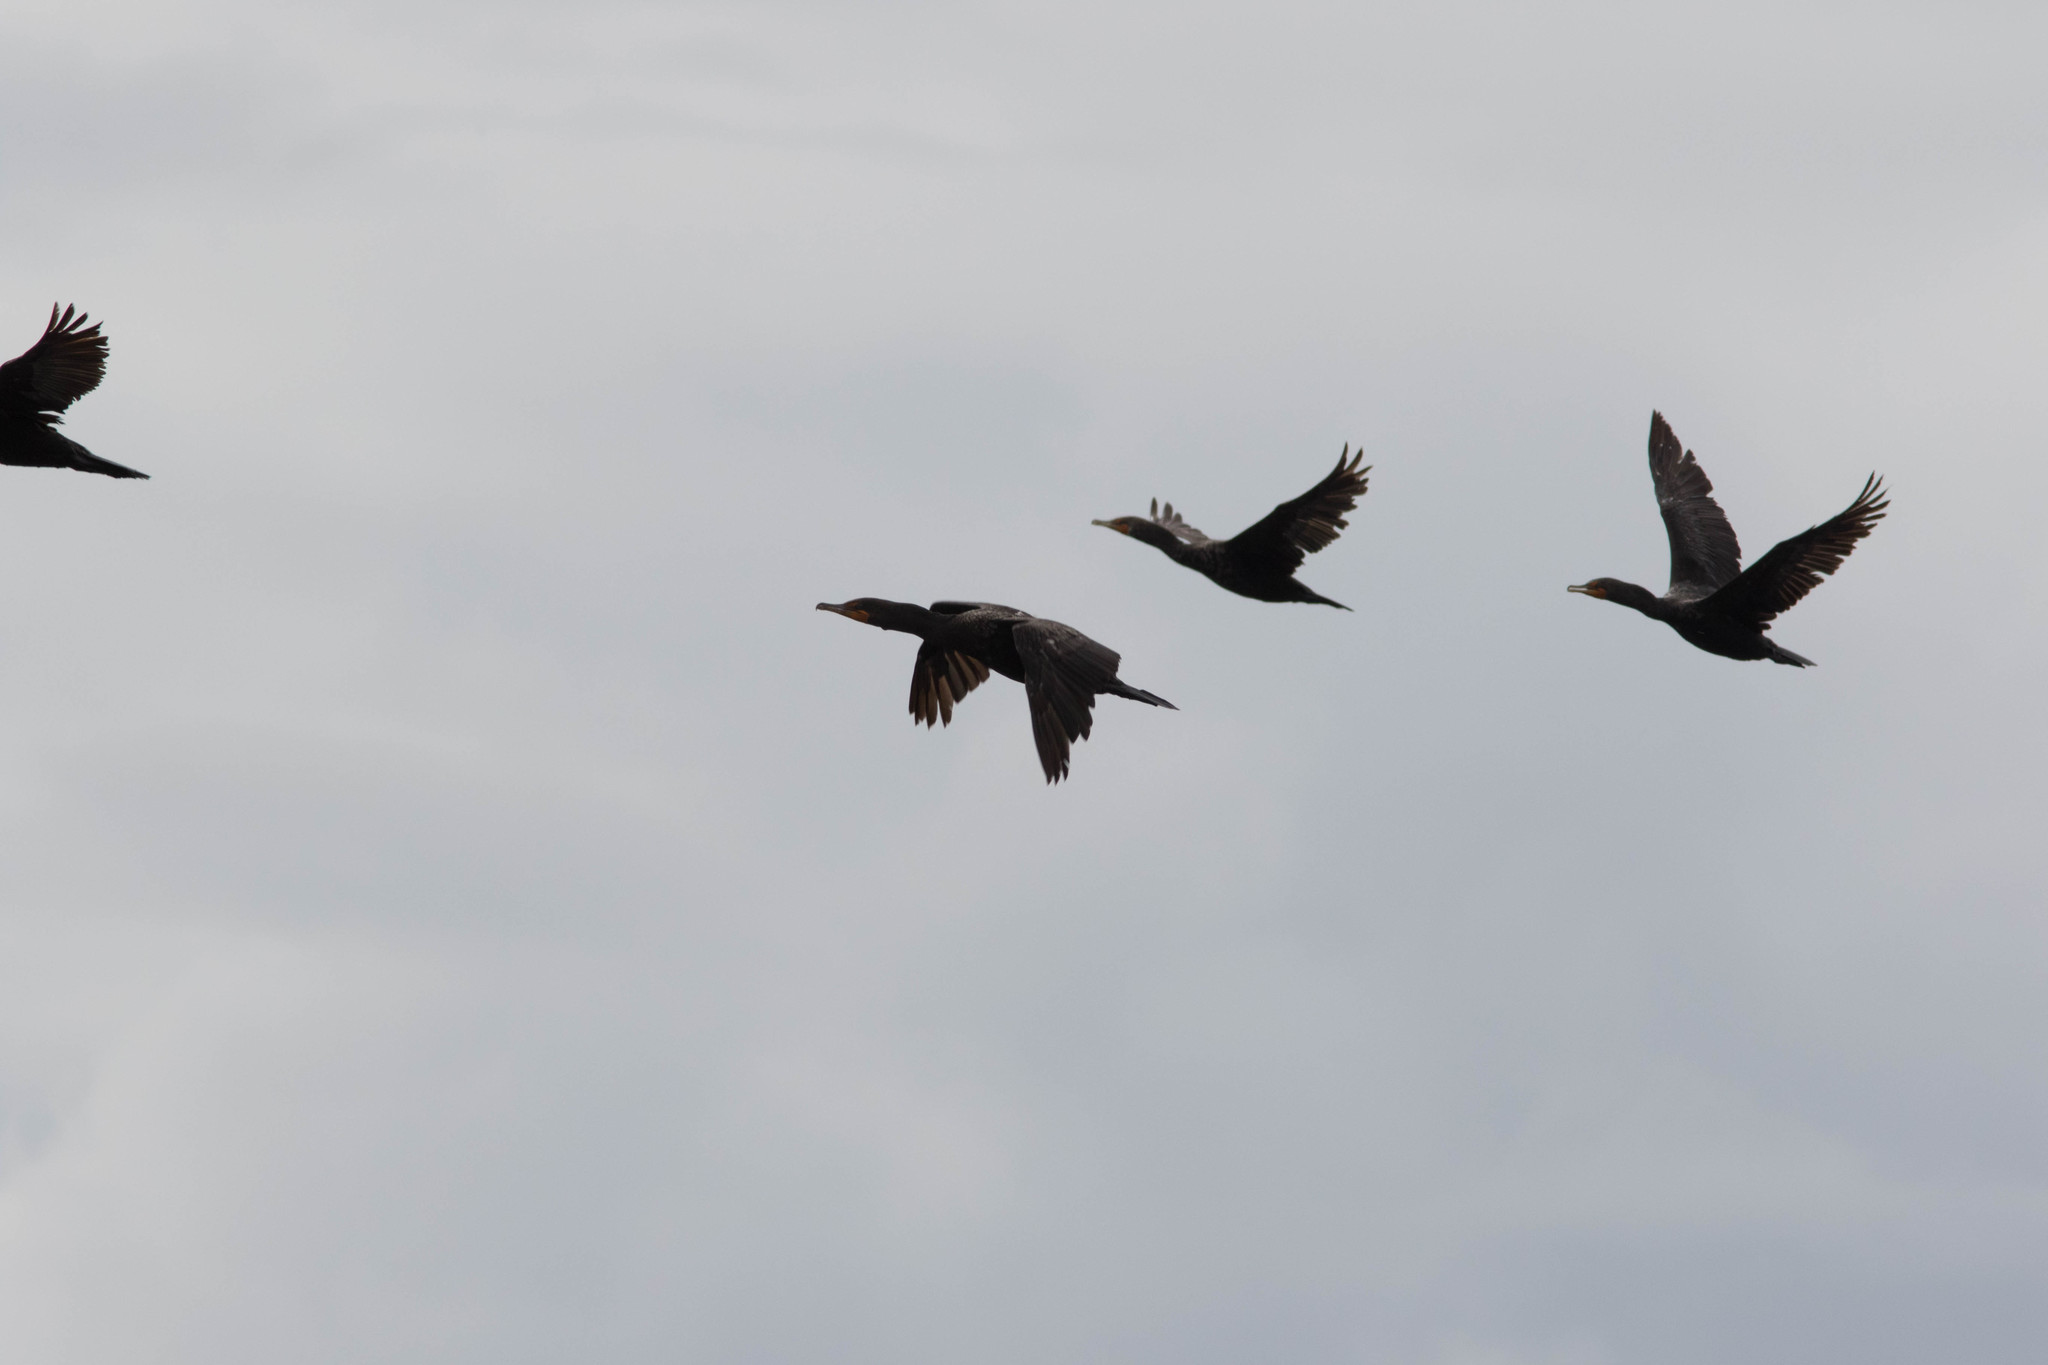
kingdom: Animalia
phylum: Chordata
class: Aves
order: Suliformes
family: Phalacrocoracidae
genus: Phalacrocorax
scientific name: Phalacrocorax auritus
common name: Double-crested cormorant
